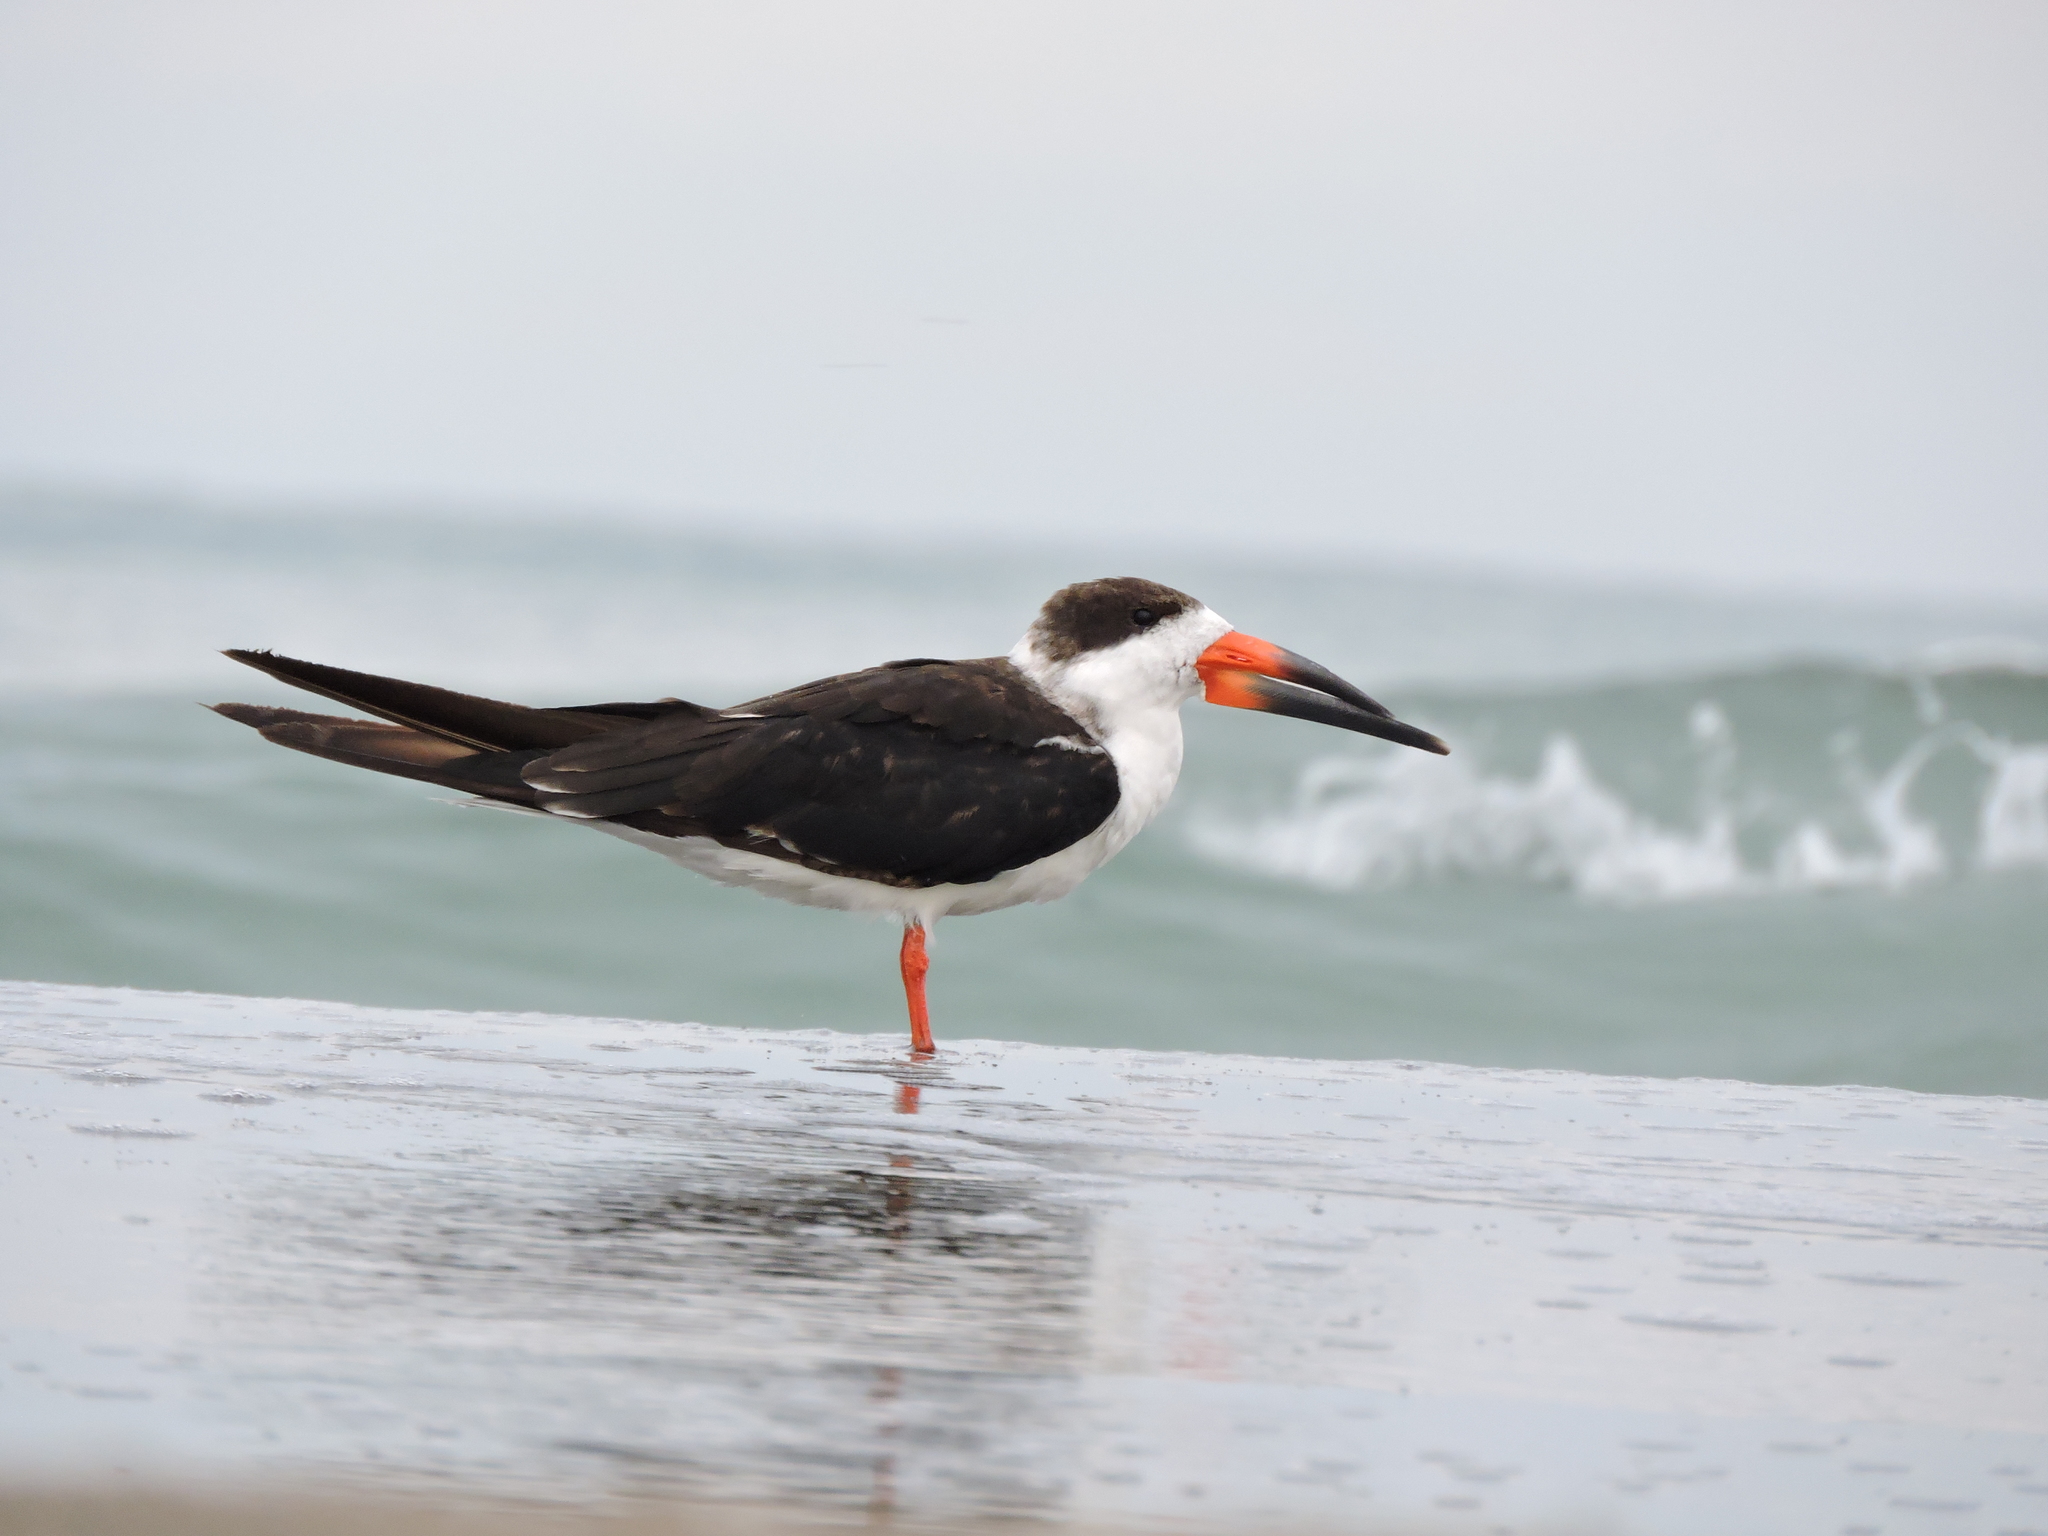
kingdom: Animalia
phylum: Chordata
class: Aves
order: Charadriiformes
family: Laridae
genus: Rynchops
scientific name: Rynchops niger
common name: Black skimmer
